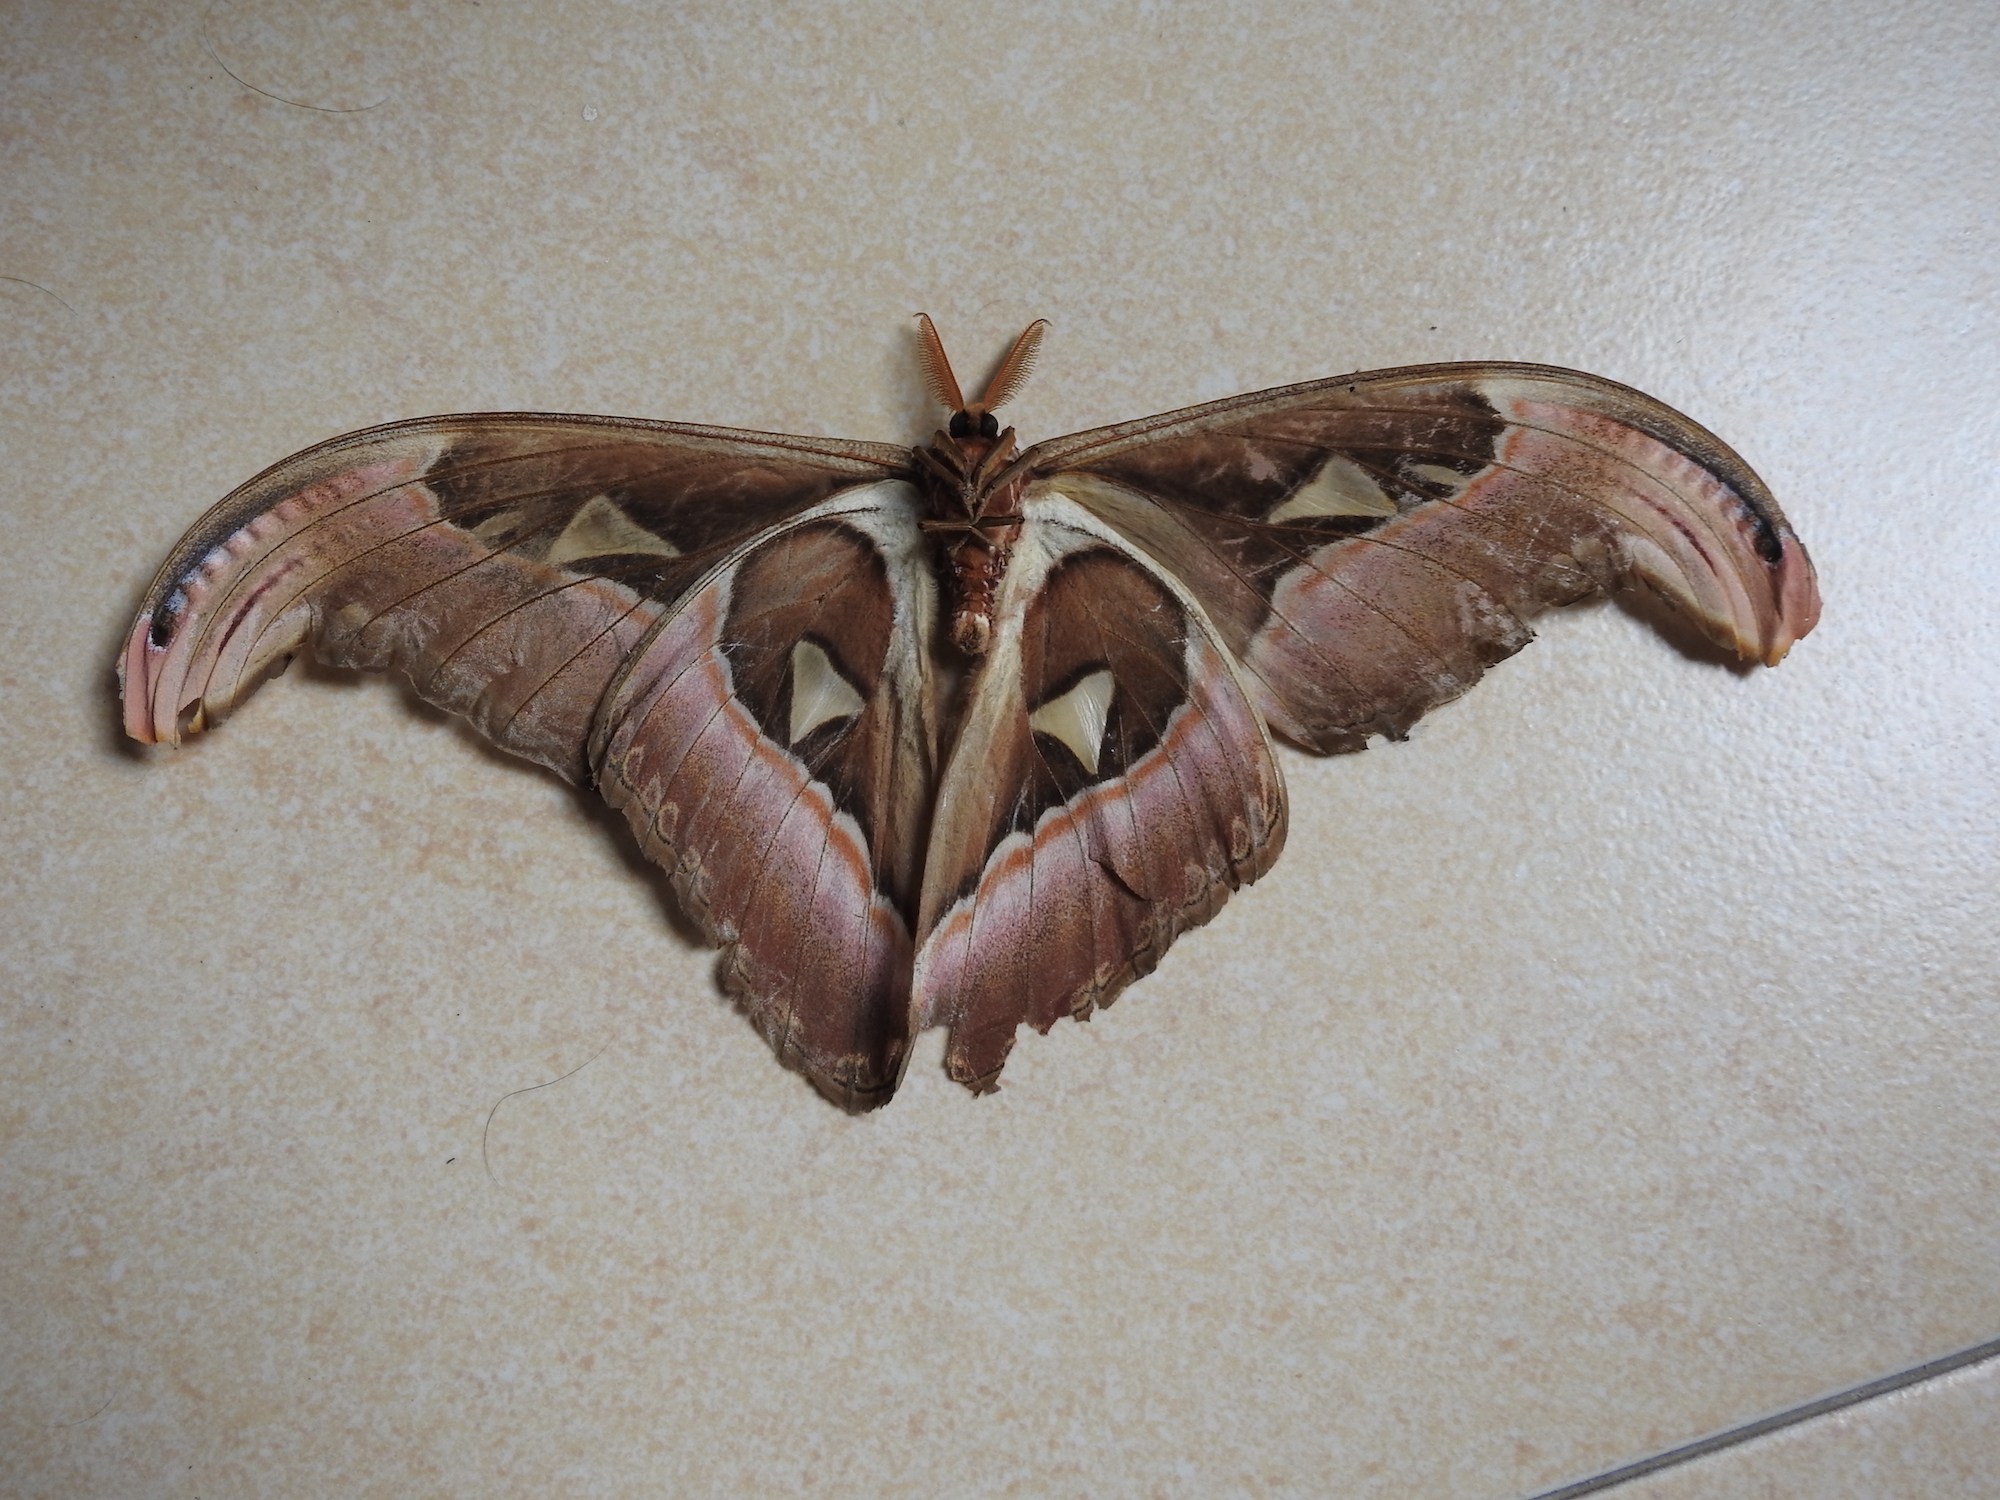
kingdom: Animalia
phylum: Arthropoda
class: Insecta
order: Lepidoptera
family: Saturniidae
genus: Attacus
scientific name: Attacus atlas
